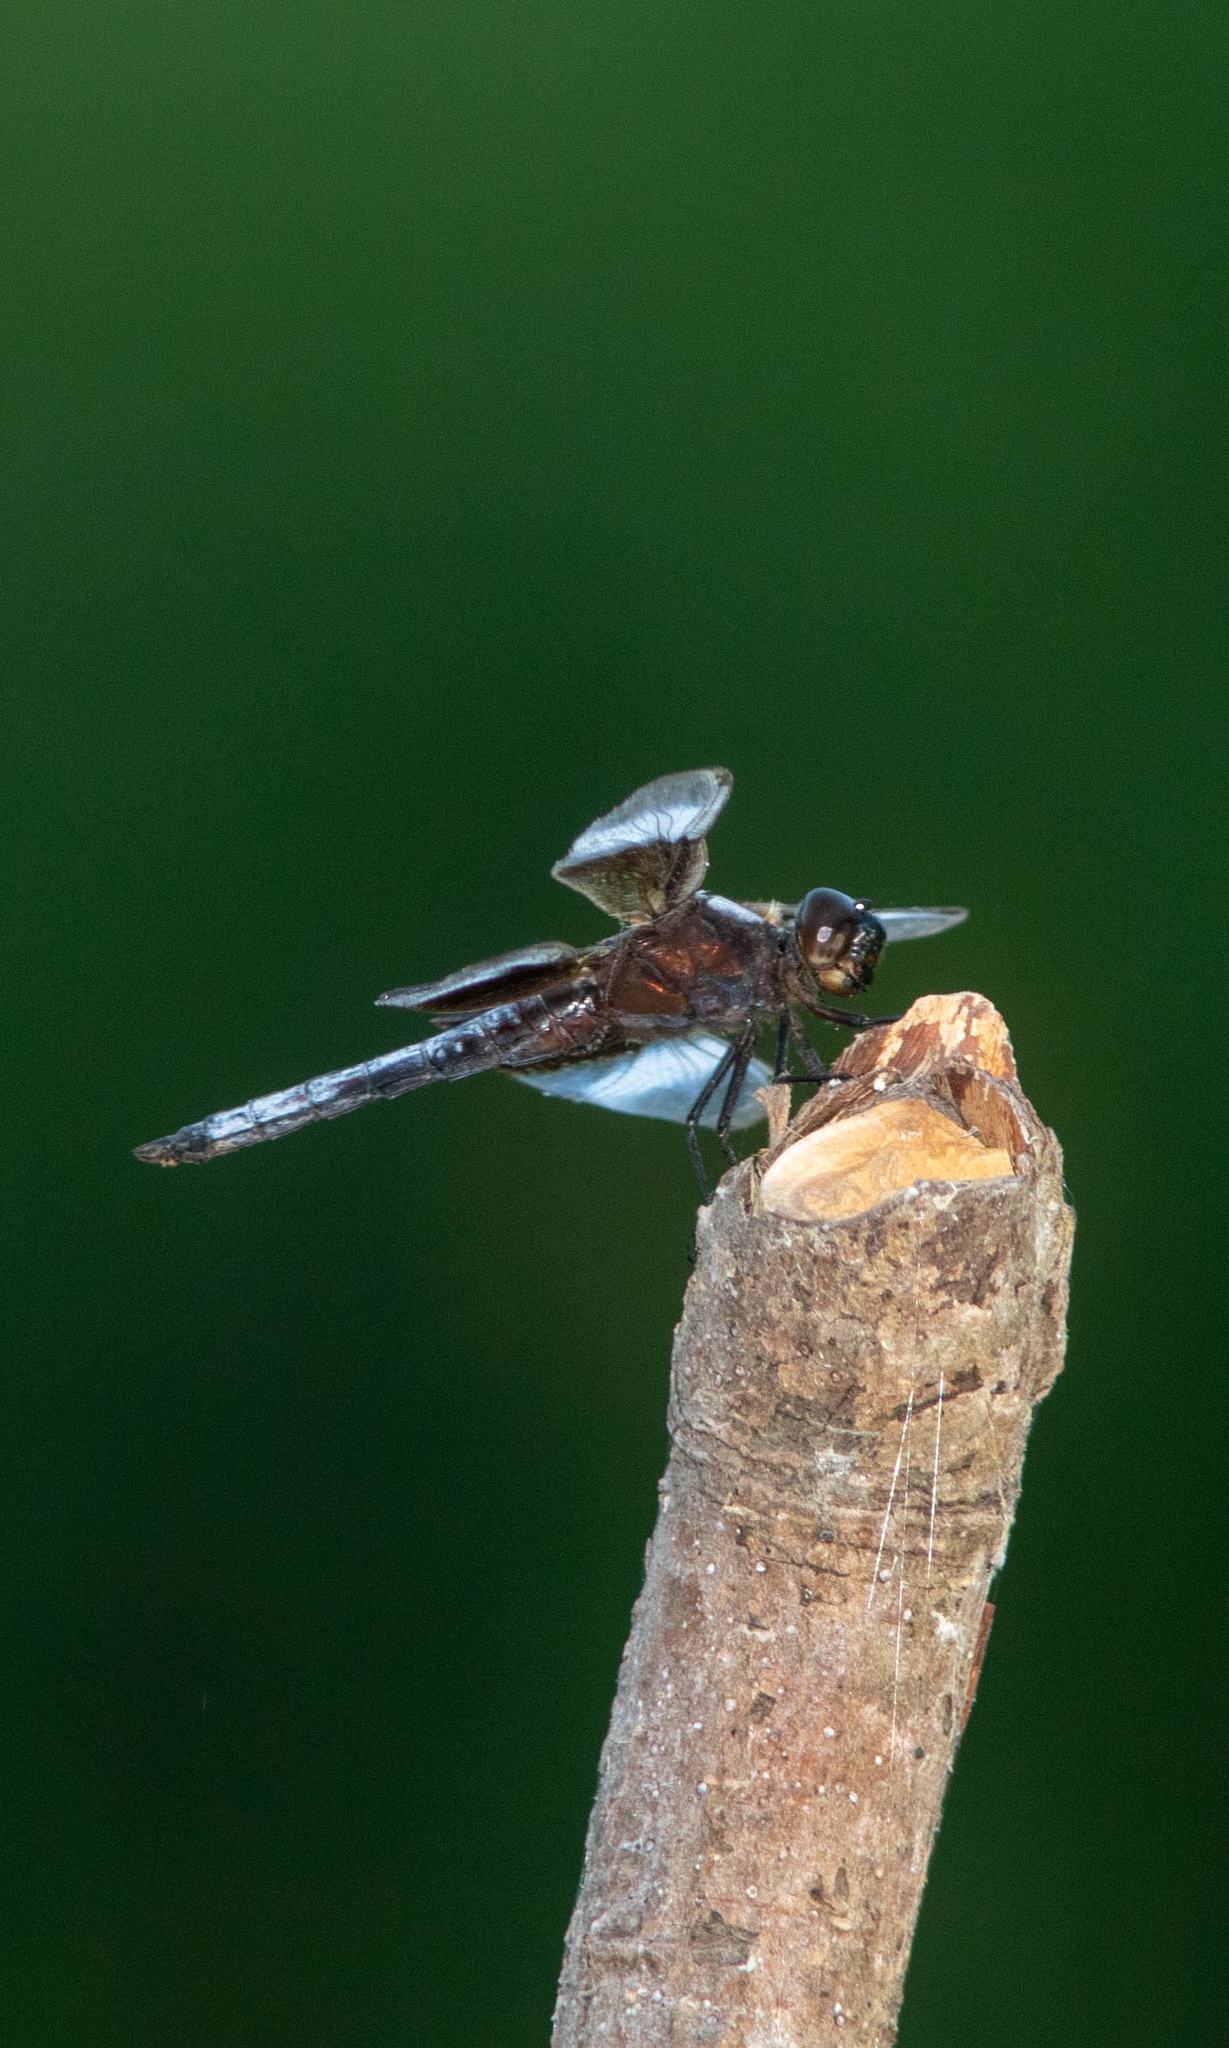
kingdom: Animalia
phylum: Arthropoda
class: Insecta
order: Odonata
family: Libellulidae
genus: Libellula
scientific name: Libellula luctuosa
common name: Widow skimmer
